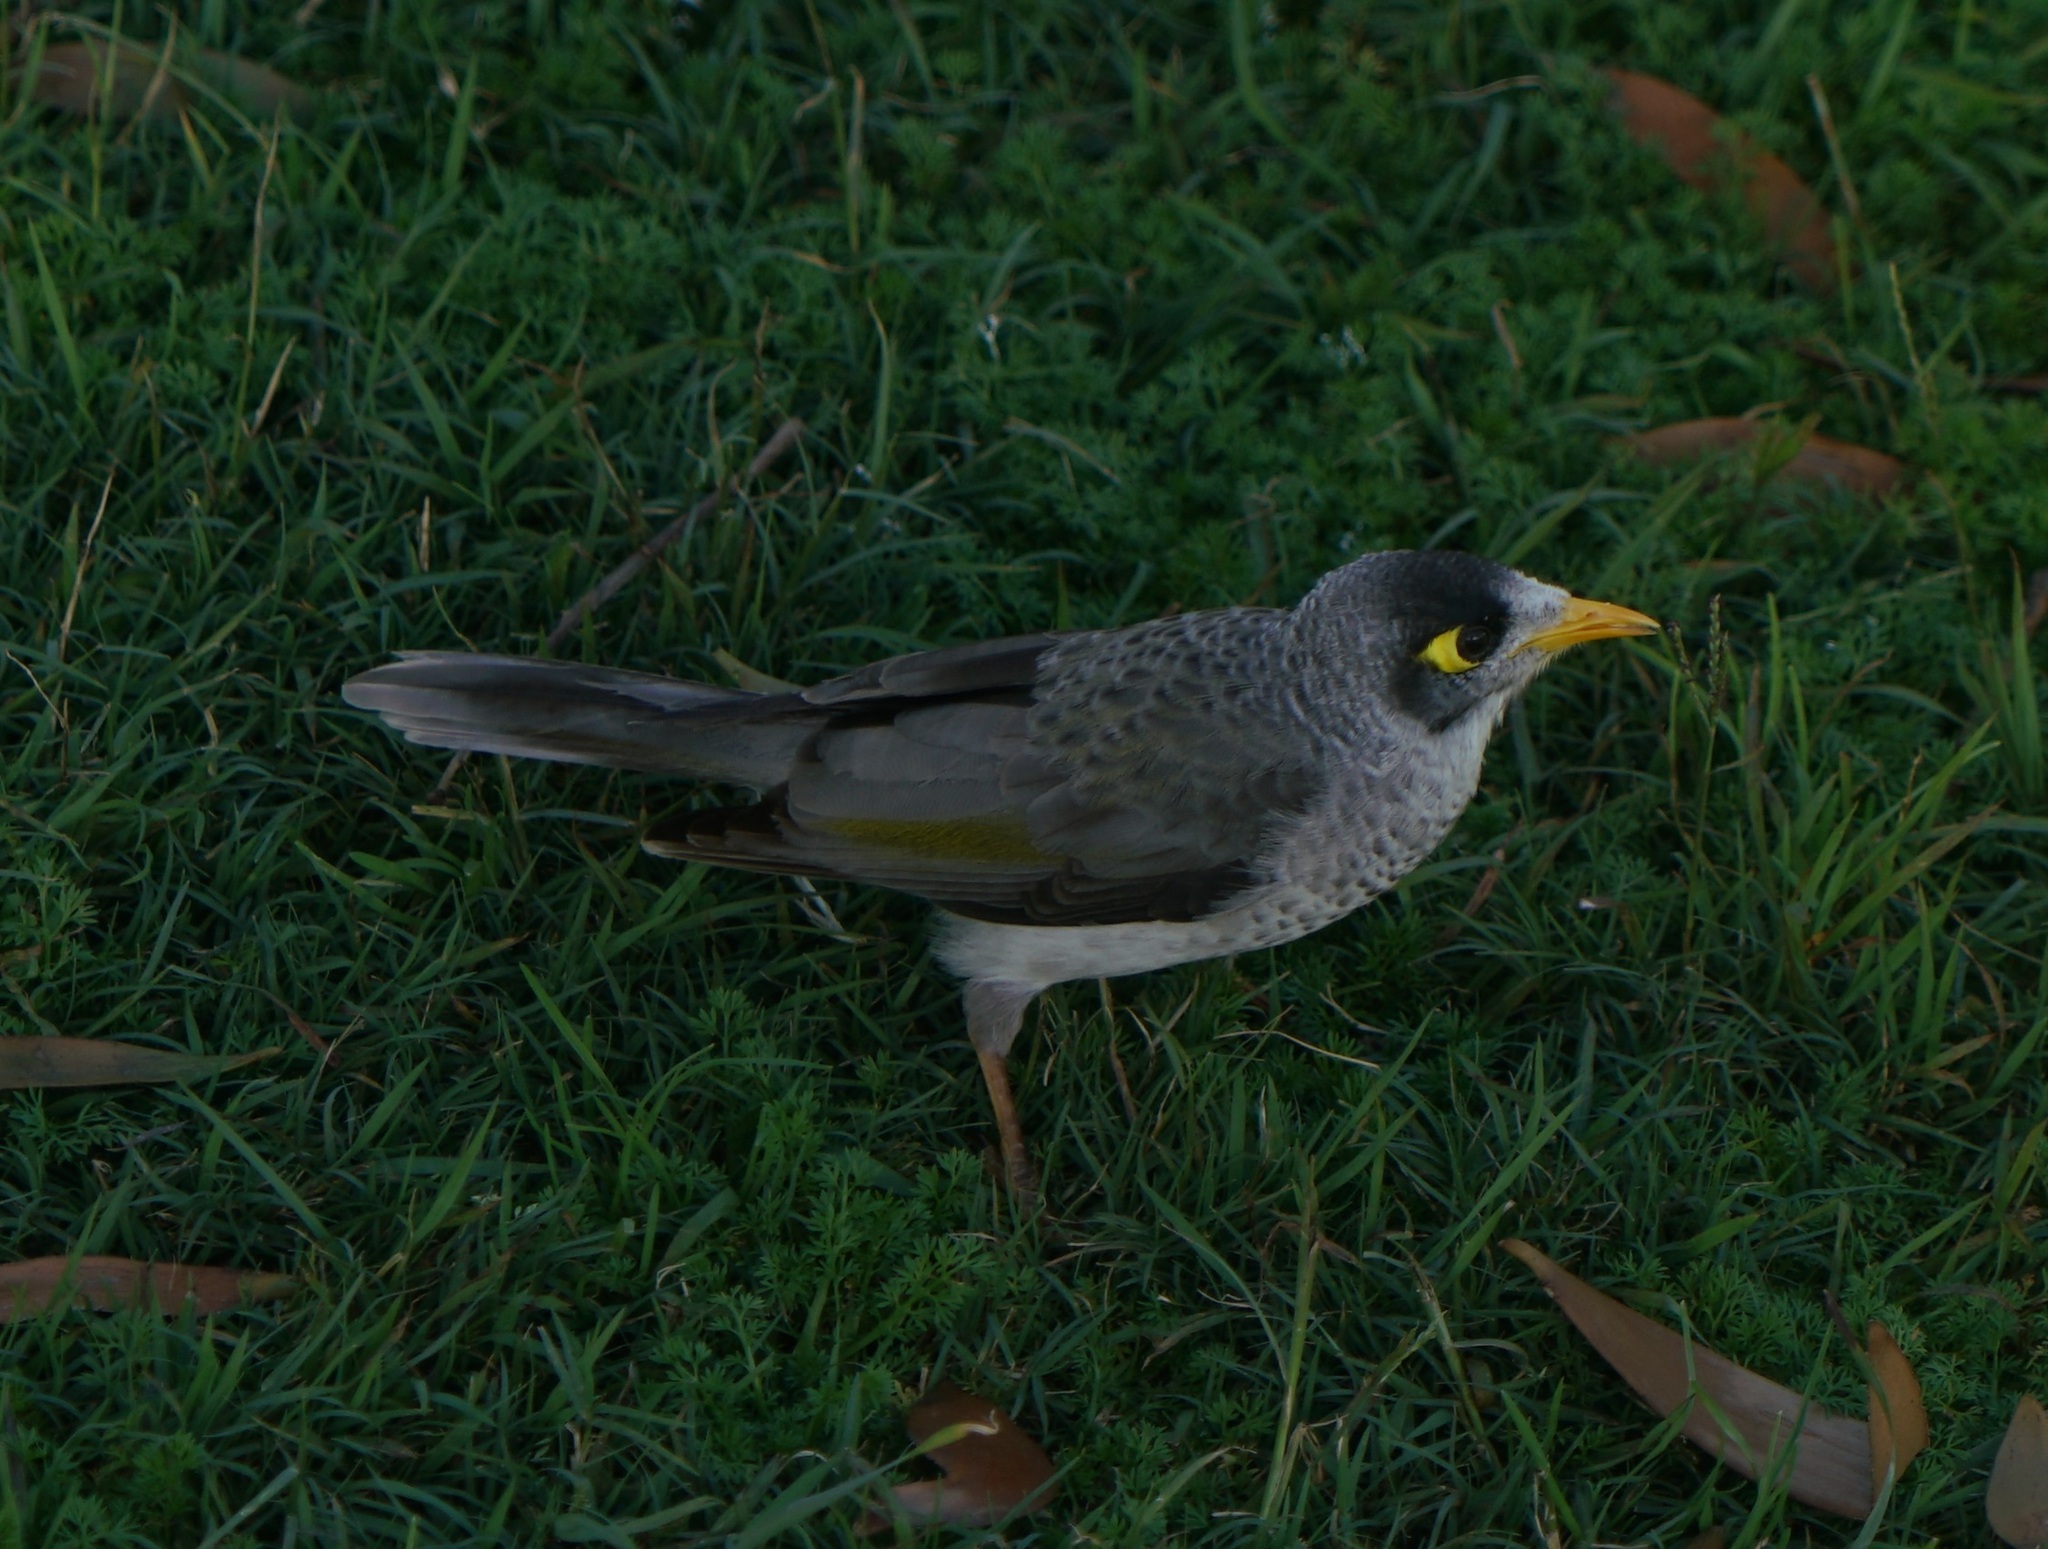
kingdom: Animalia
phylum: Chordata
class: Aves
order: Passeriformes
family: Meliphagidae
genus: Manorina
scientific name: Manorina melanocephala
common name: Noisy miner
